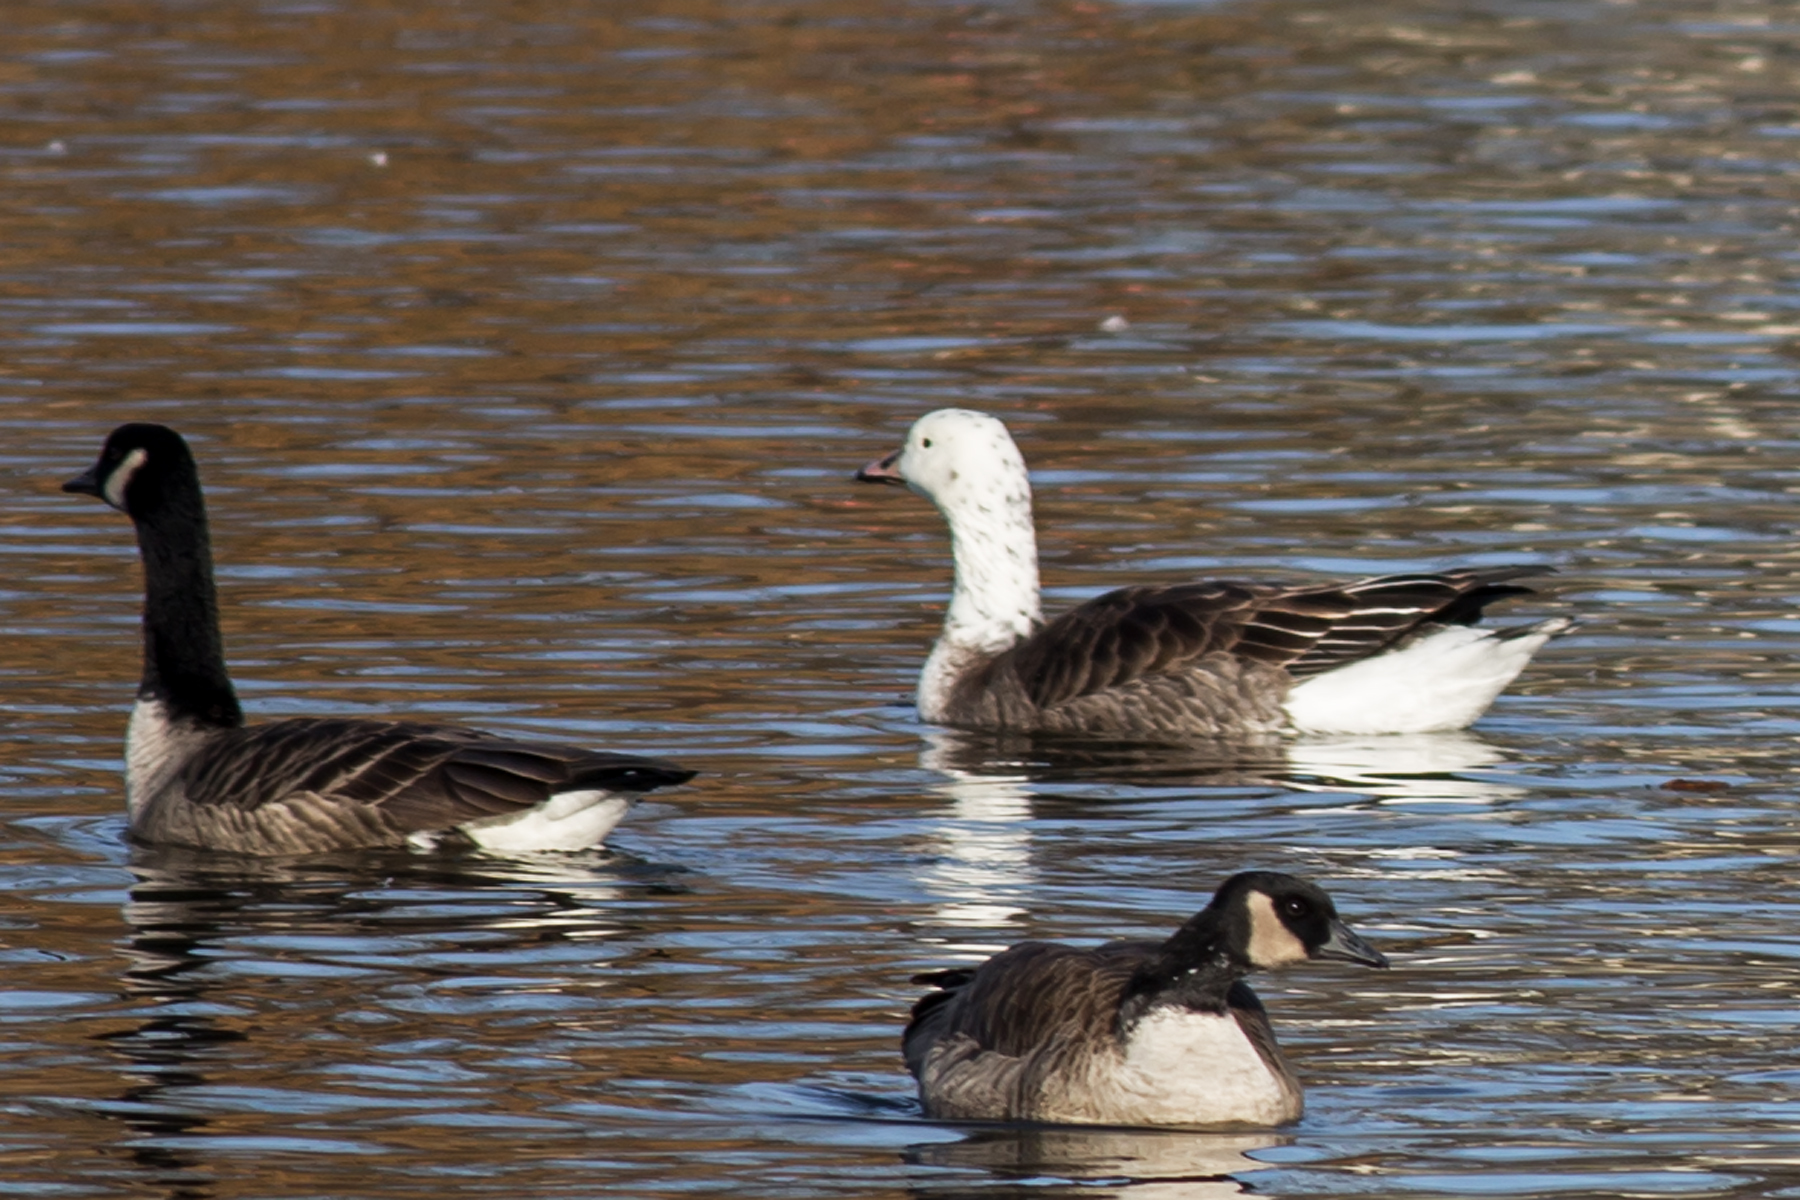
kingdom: Animalia
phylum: Chordata
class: Aves
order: Anseriformes
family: Anatidae
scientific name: Anatidae
